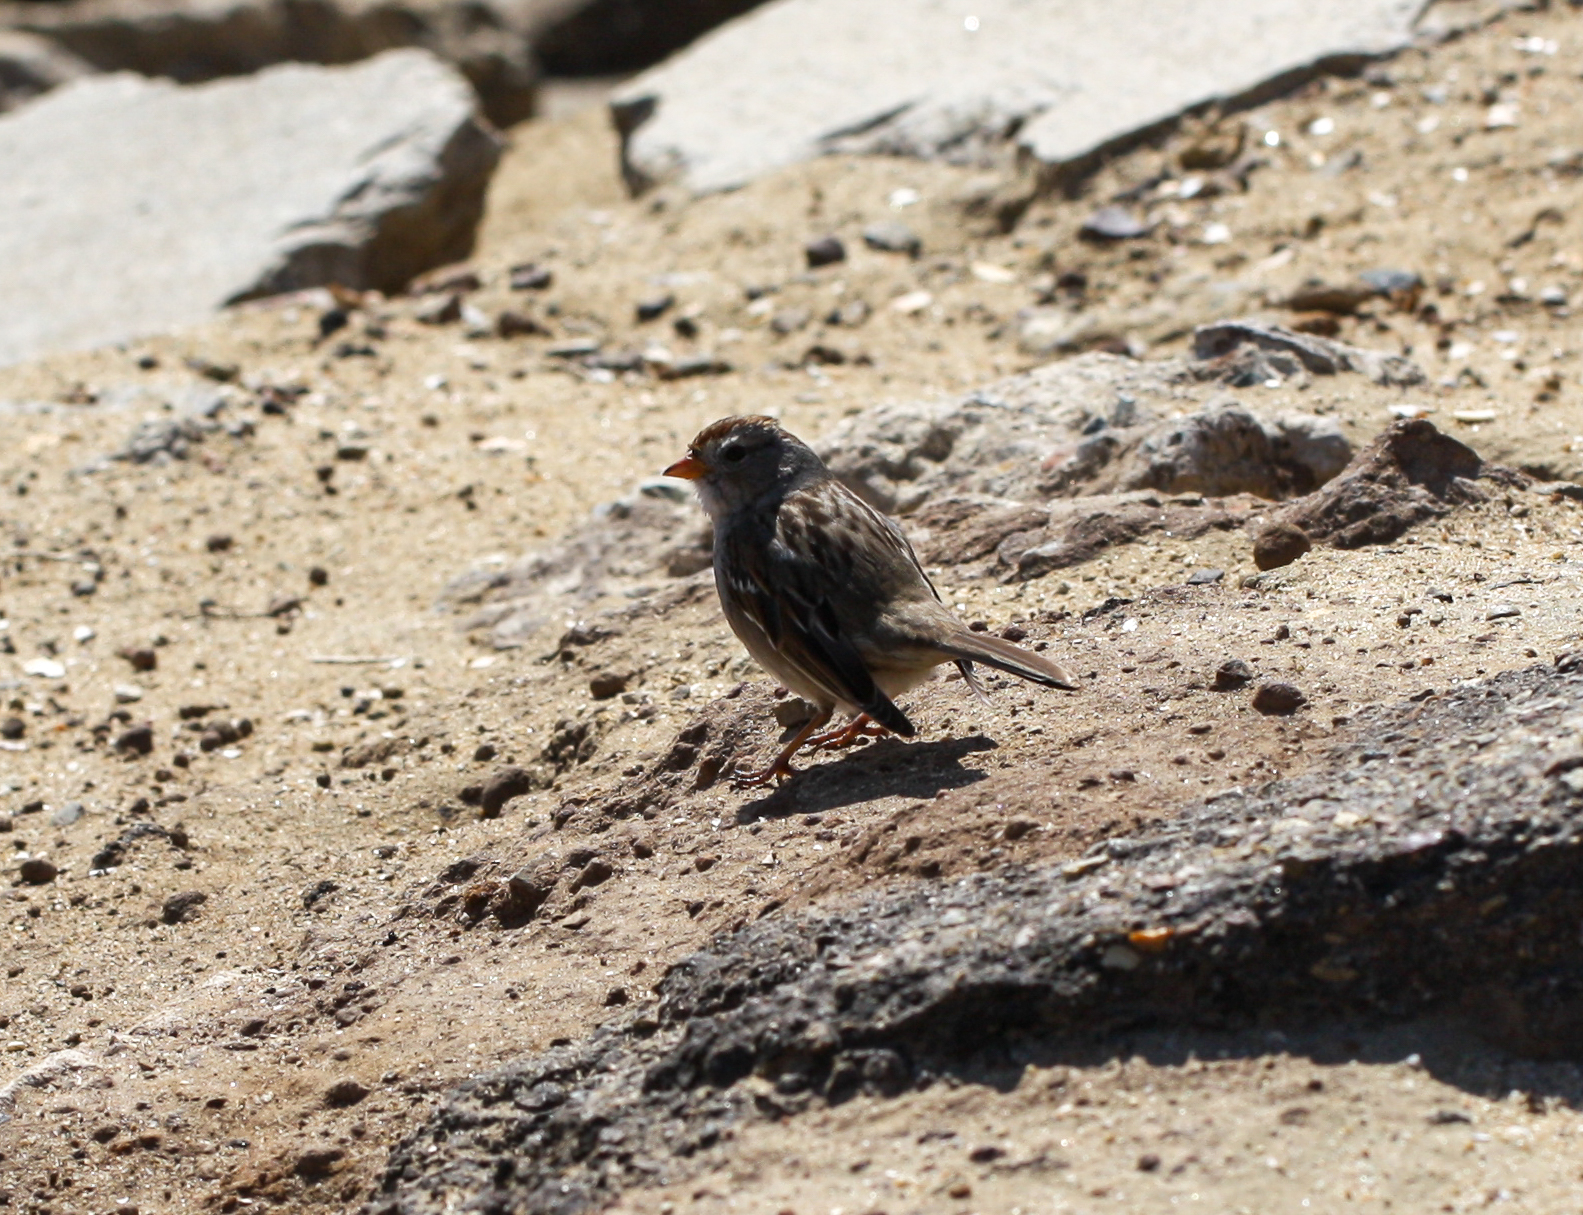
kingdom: Animalia
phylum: Chordata
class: Aves
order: Passeriformes
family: Passerellidae
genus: Zonotrichia
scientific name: Zonotrichia leucophrys
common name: White-crowned sparrow
